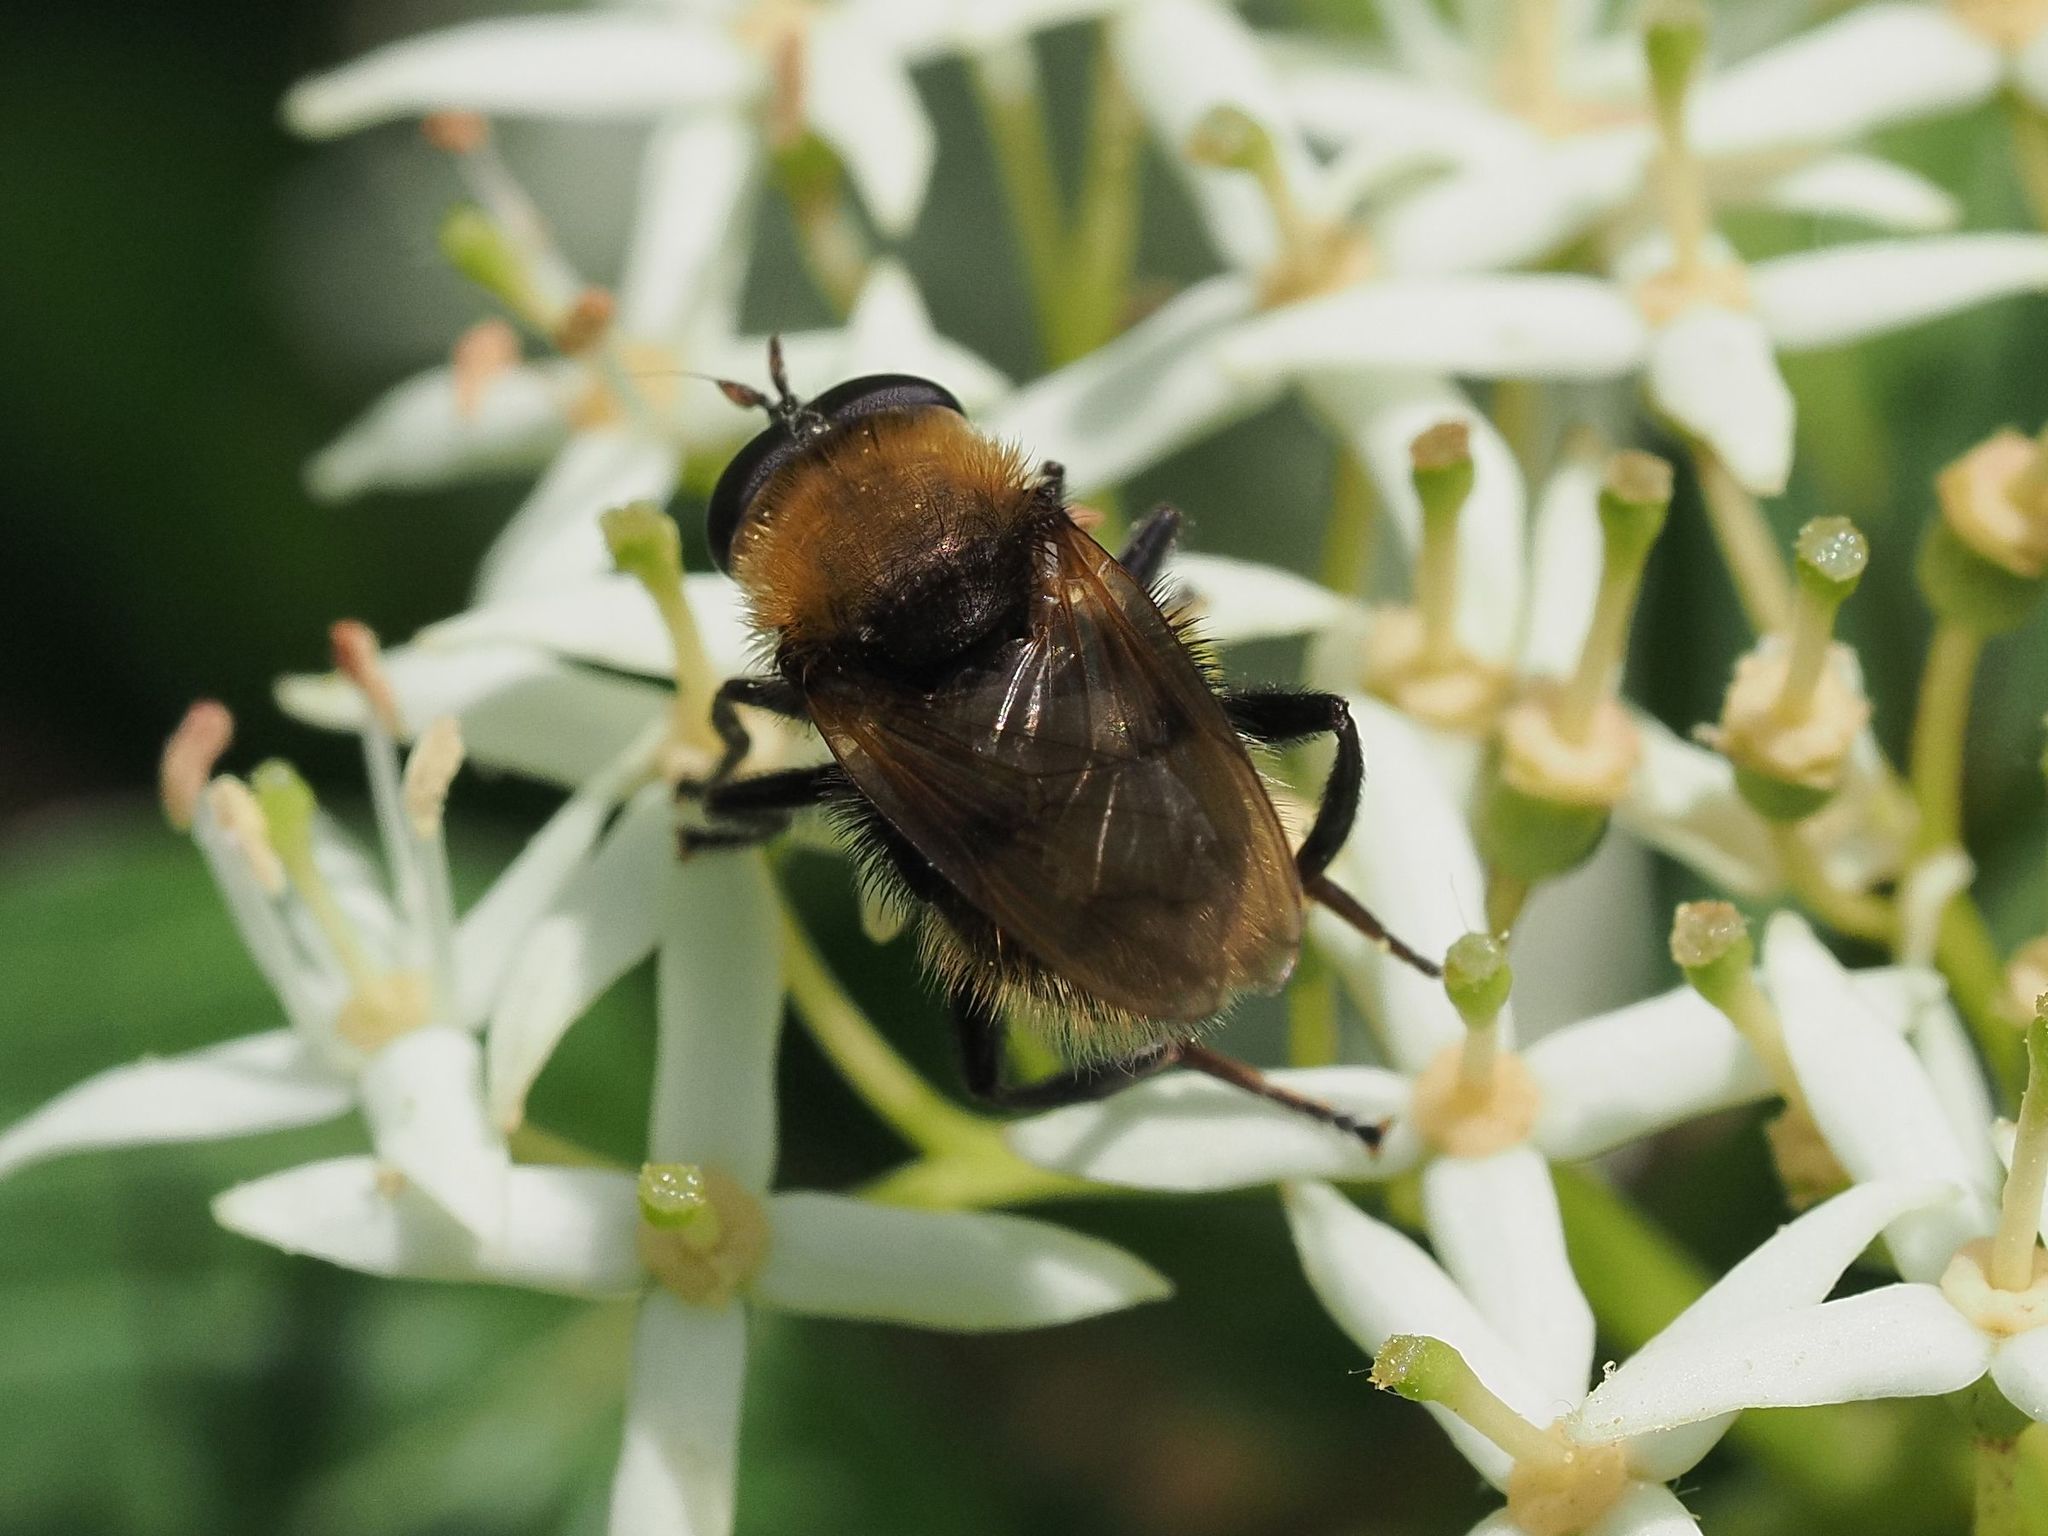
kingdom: Animalia
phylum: Arthropoda
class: Insecta
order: Diptera
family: Syrphidae
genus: Criorhina
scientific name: Criorhina berberina
